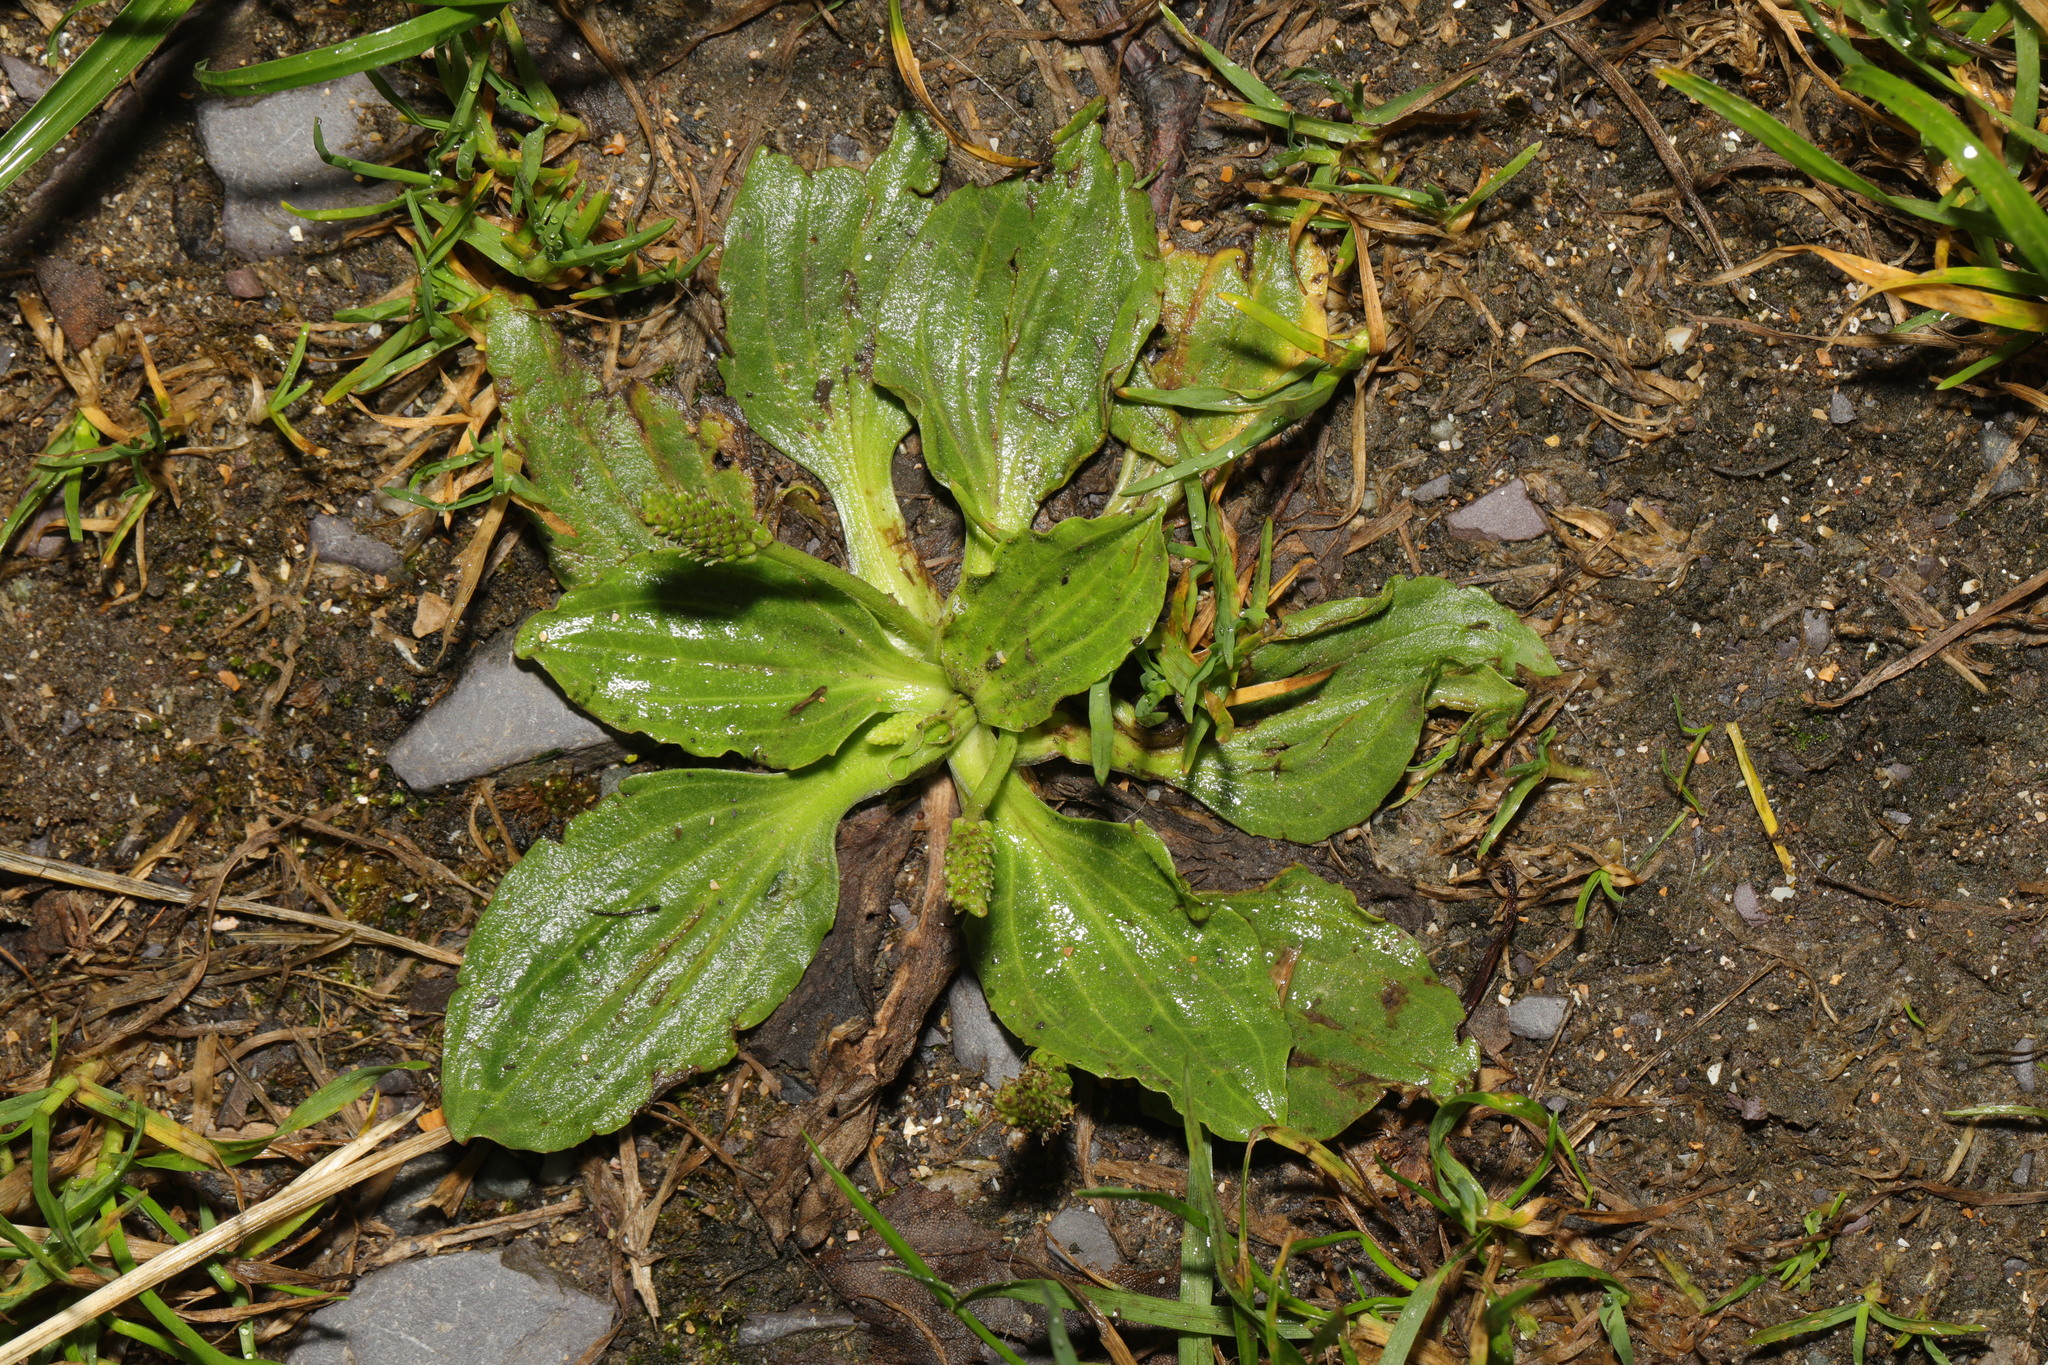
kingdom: Plantae
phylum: Tracheophyta
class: Magnoliopsida
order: Lamiales
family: Plantaginaceae
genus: Plantago
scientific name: Plantago major
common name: Common plantain
